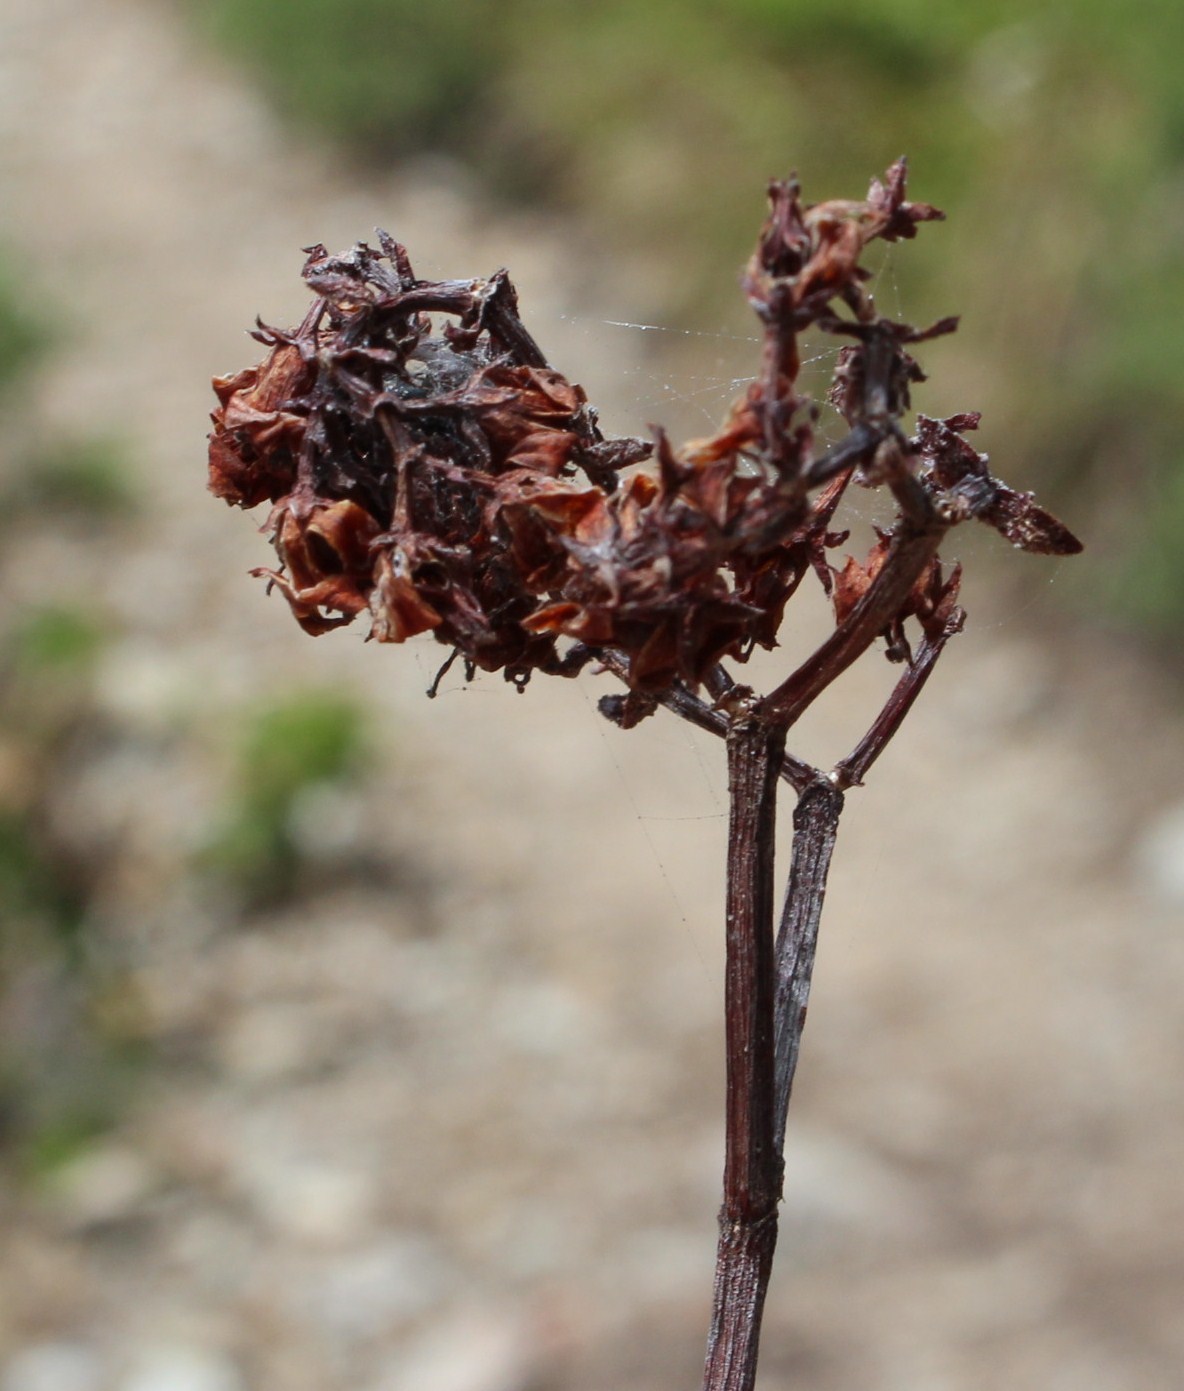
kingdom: Plantae
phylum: Tracheophyta
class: Magnoliopsida
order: Saxifragales
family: Crassulaceae
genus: Crassula
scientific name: Crassula rubricaulis
